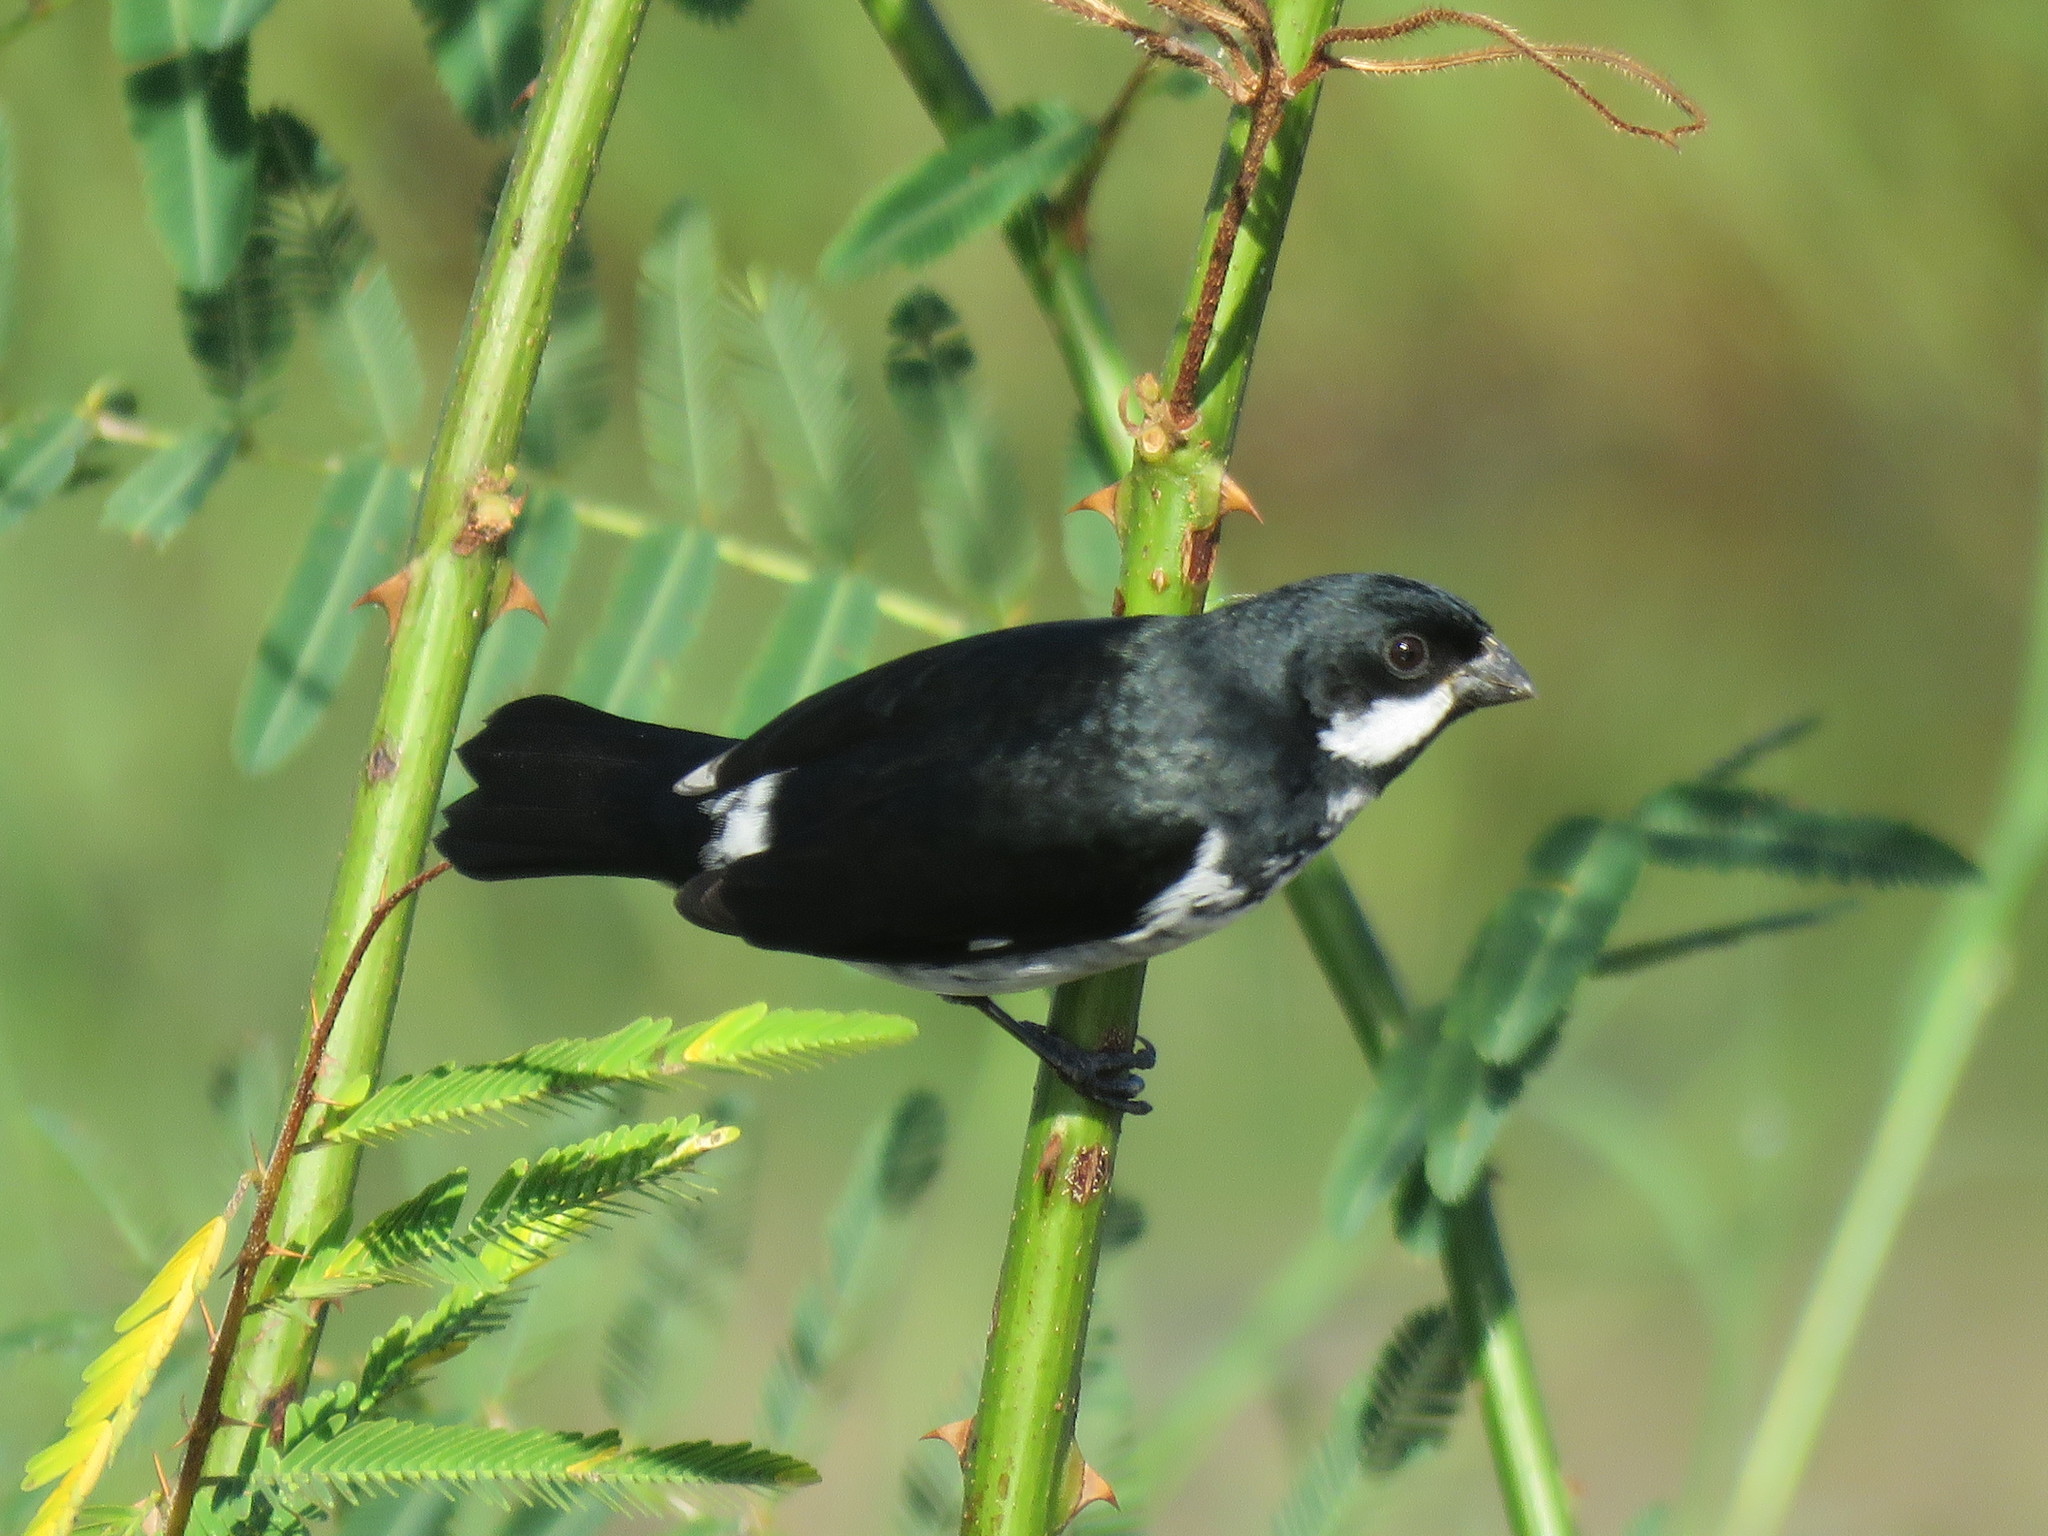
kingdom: Animalia
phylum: Chordata
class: Aves
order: Passeriformes
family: Thraupidae
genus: Sporophila
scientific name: Sporophila bouvronides
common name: Lesson's seedeater
